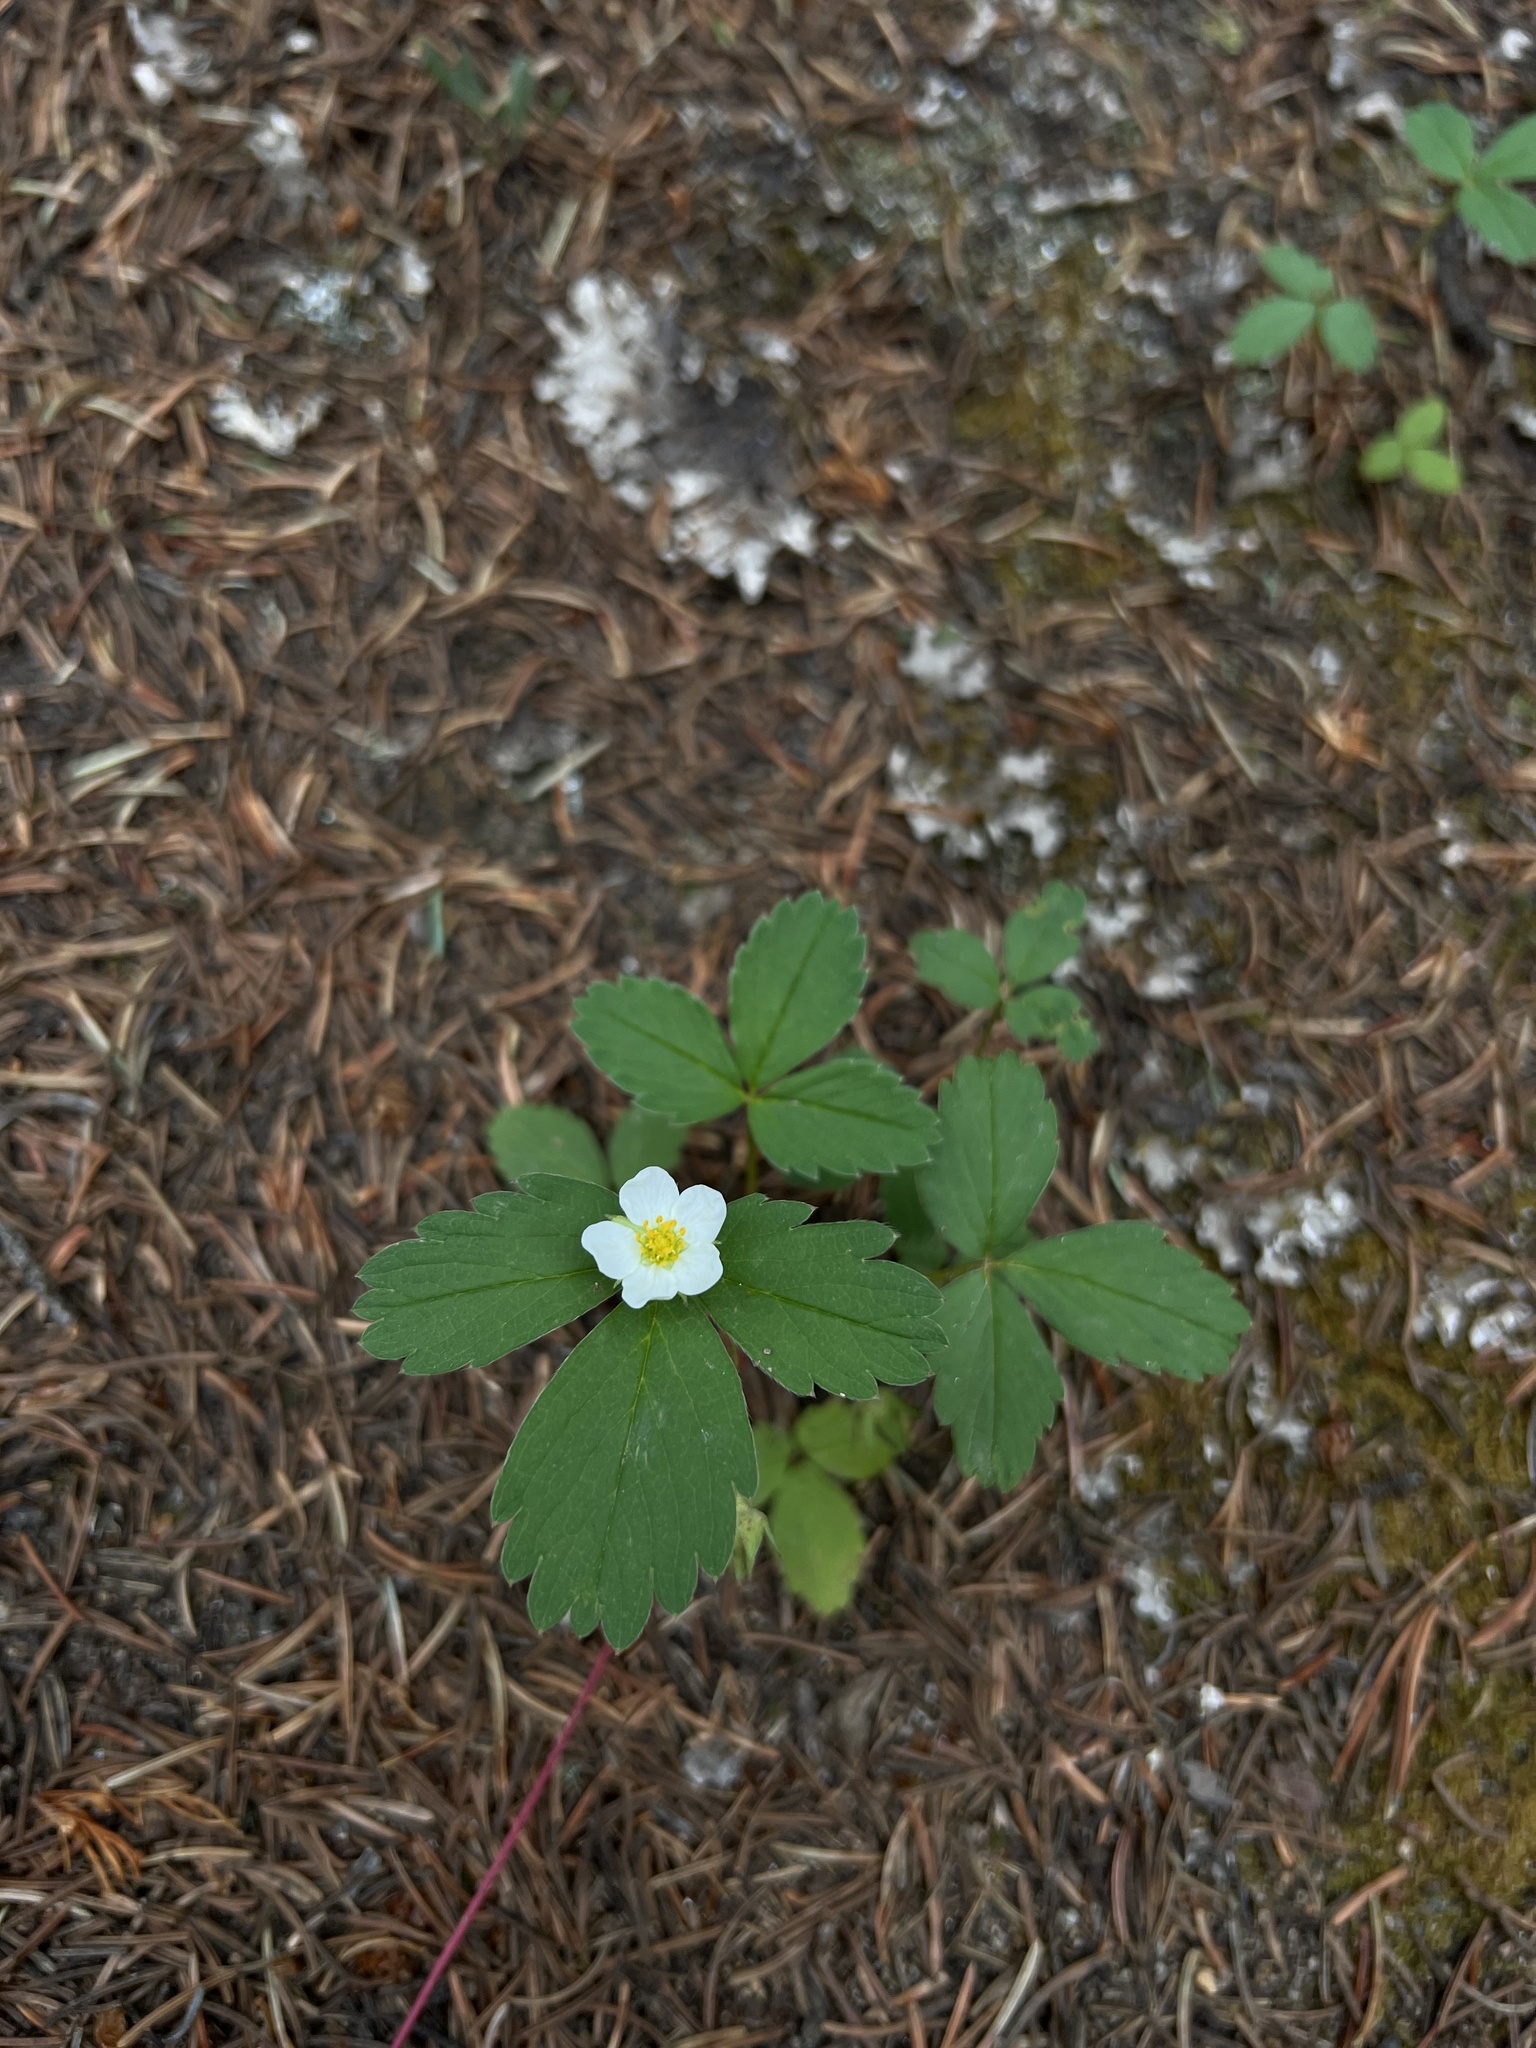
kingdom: Plantae
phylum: Tracheophyta
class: Magnoliopsida
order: Rosales
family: Rosaceae
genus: Fragaria
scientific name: Fragaria virginiana
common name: Thickleaved wild strawberry
